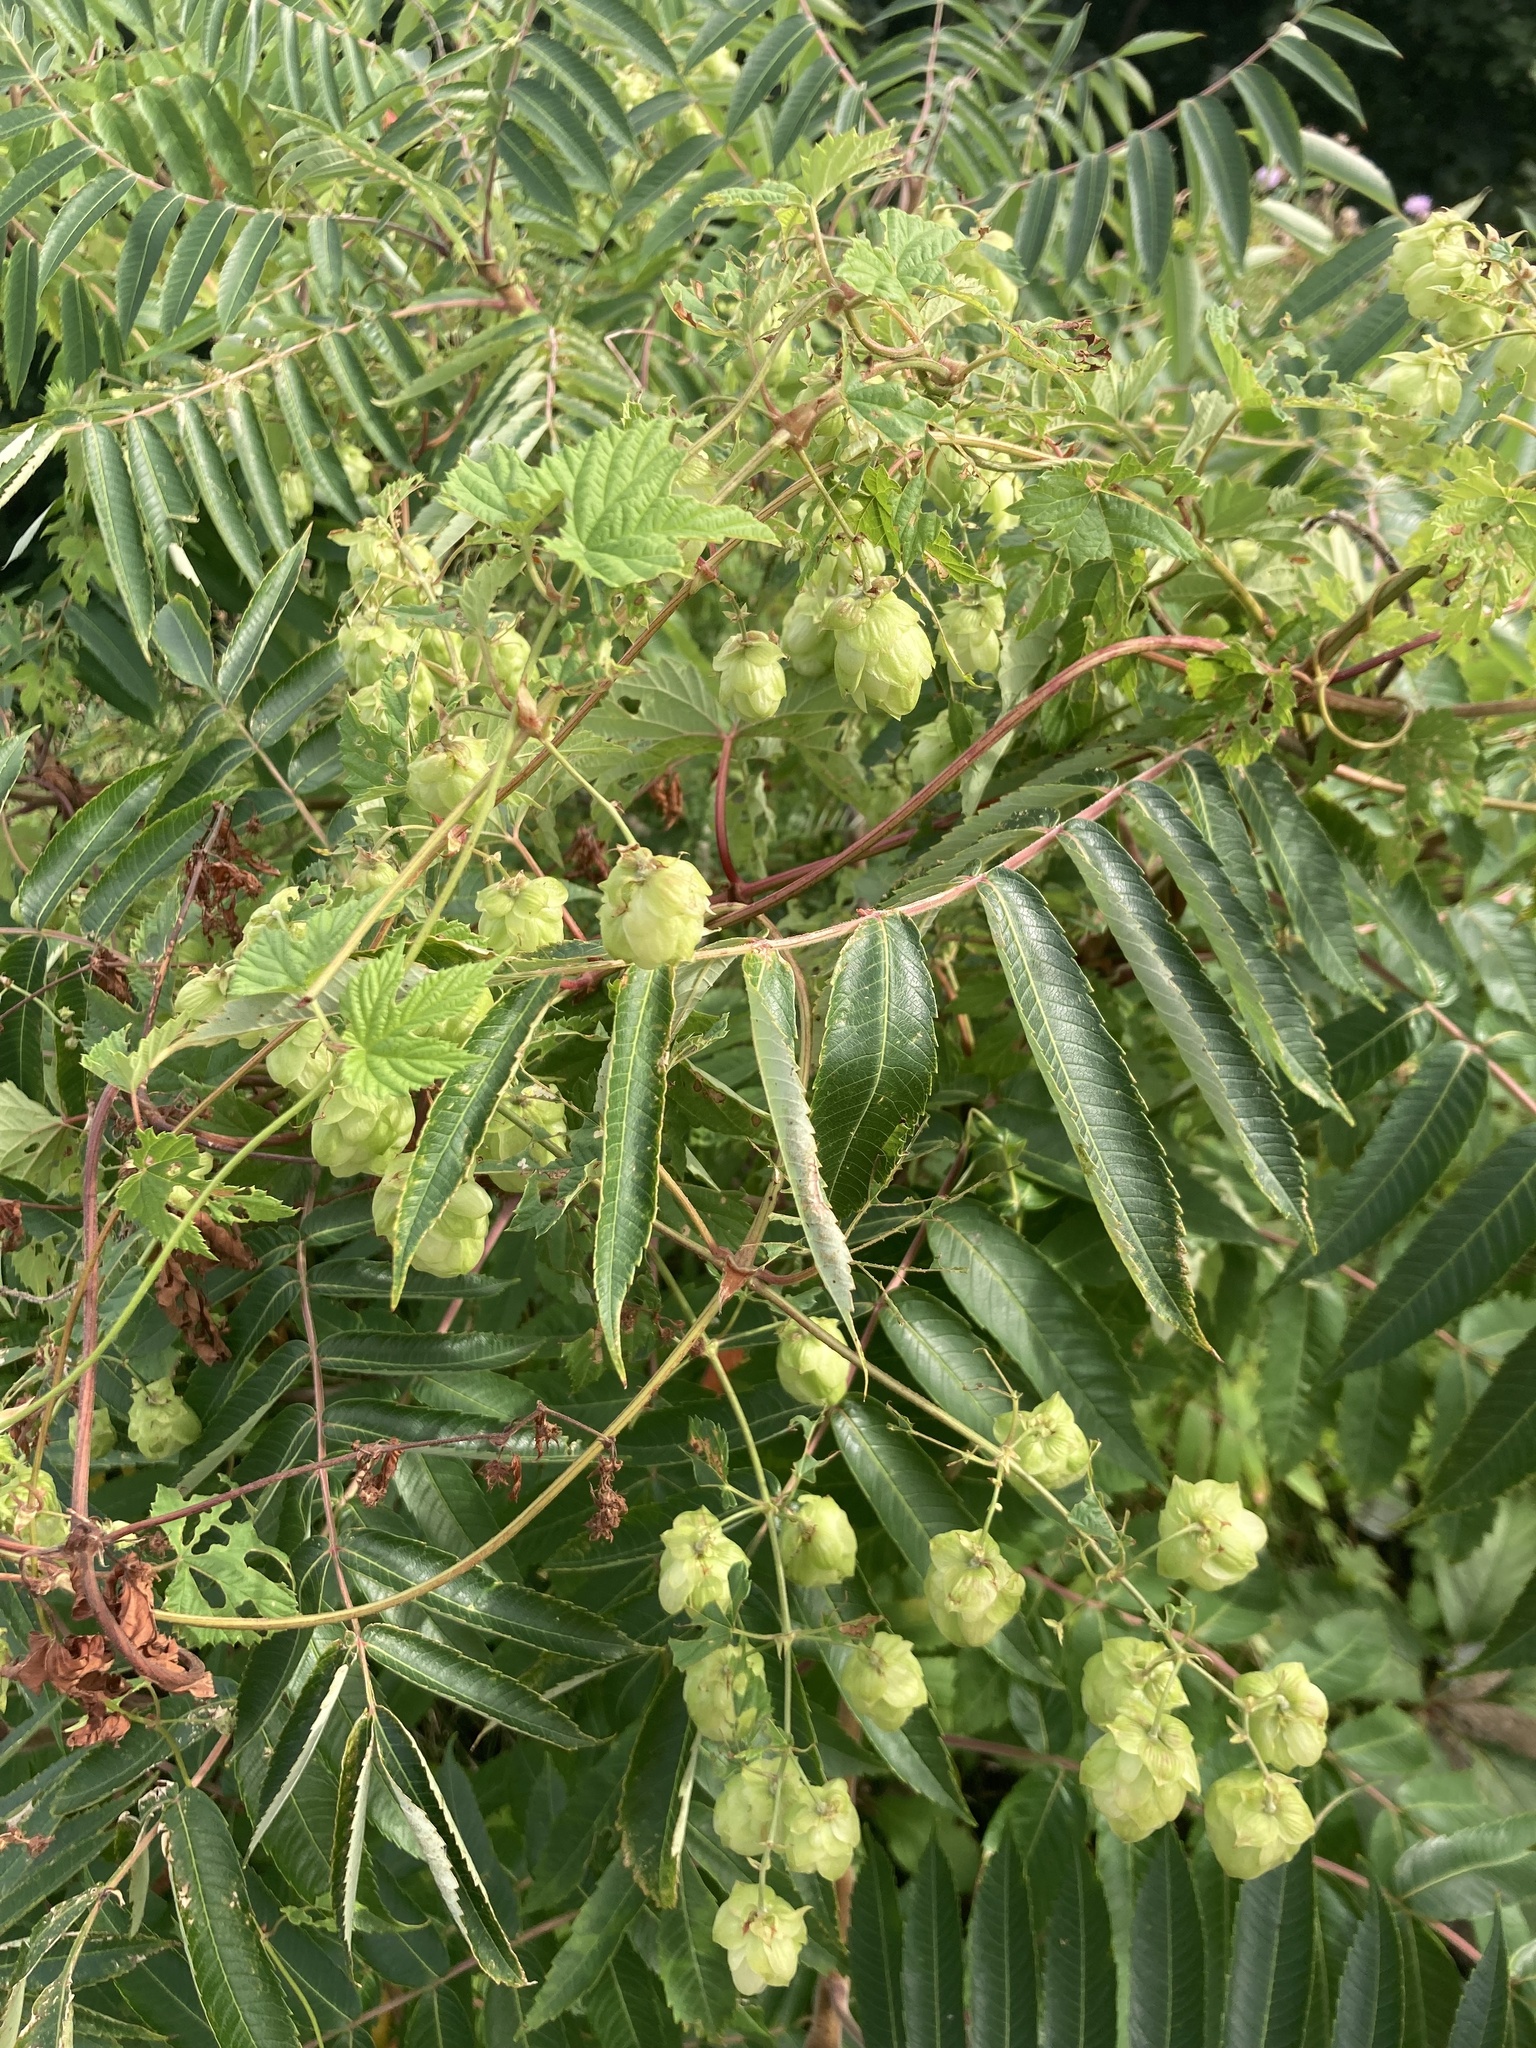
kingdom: Plantae
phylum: Tracheophyta
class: Magnoliopsida
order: Rosales
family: Cannabaceae
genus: Humulus
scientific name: Humulus lupulus
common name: Hop
